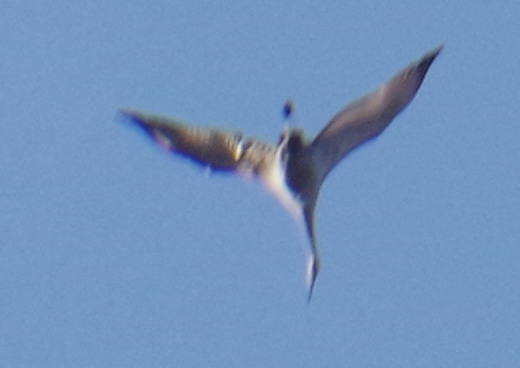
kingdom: Animalia
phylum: Chordata
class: Aves
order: Gruiformes
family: Gruidae
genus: Grus
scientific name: Grus canadensis
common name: Sandhill crane
